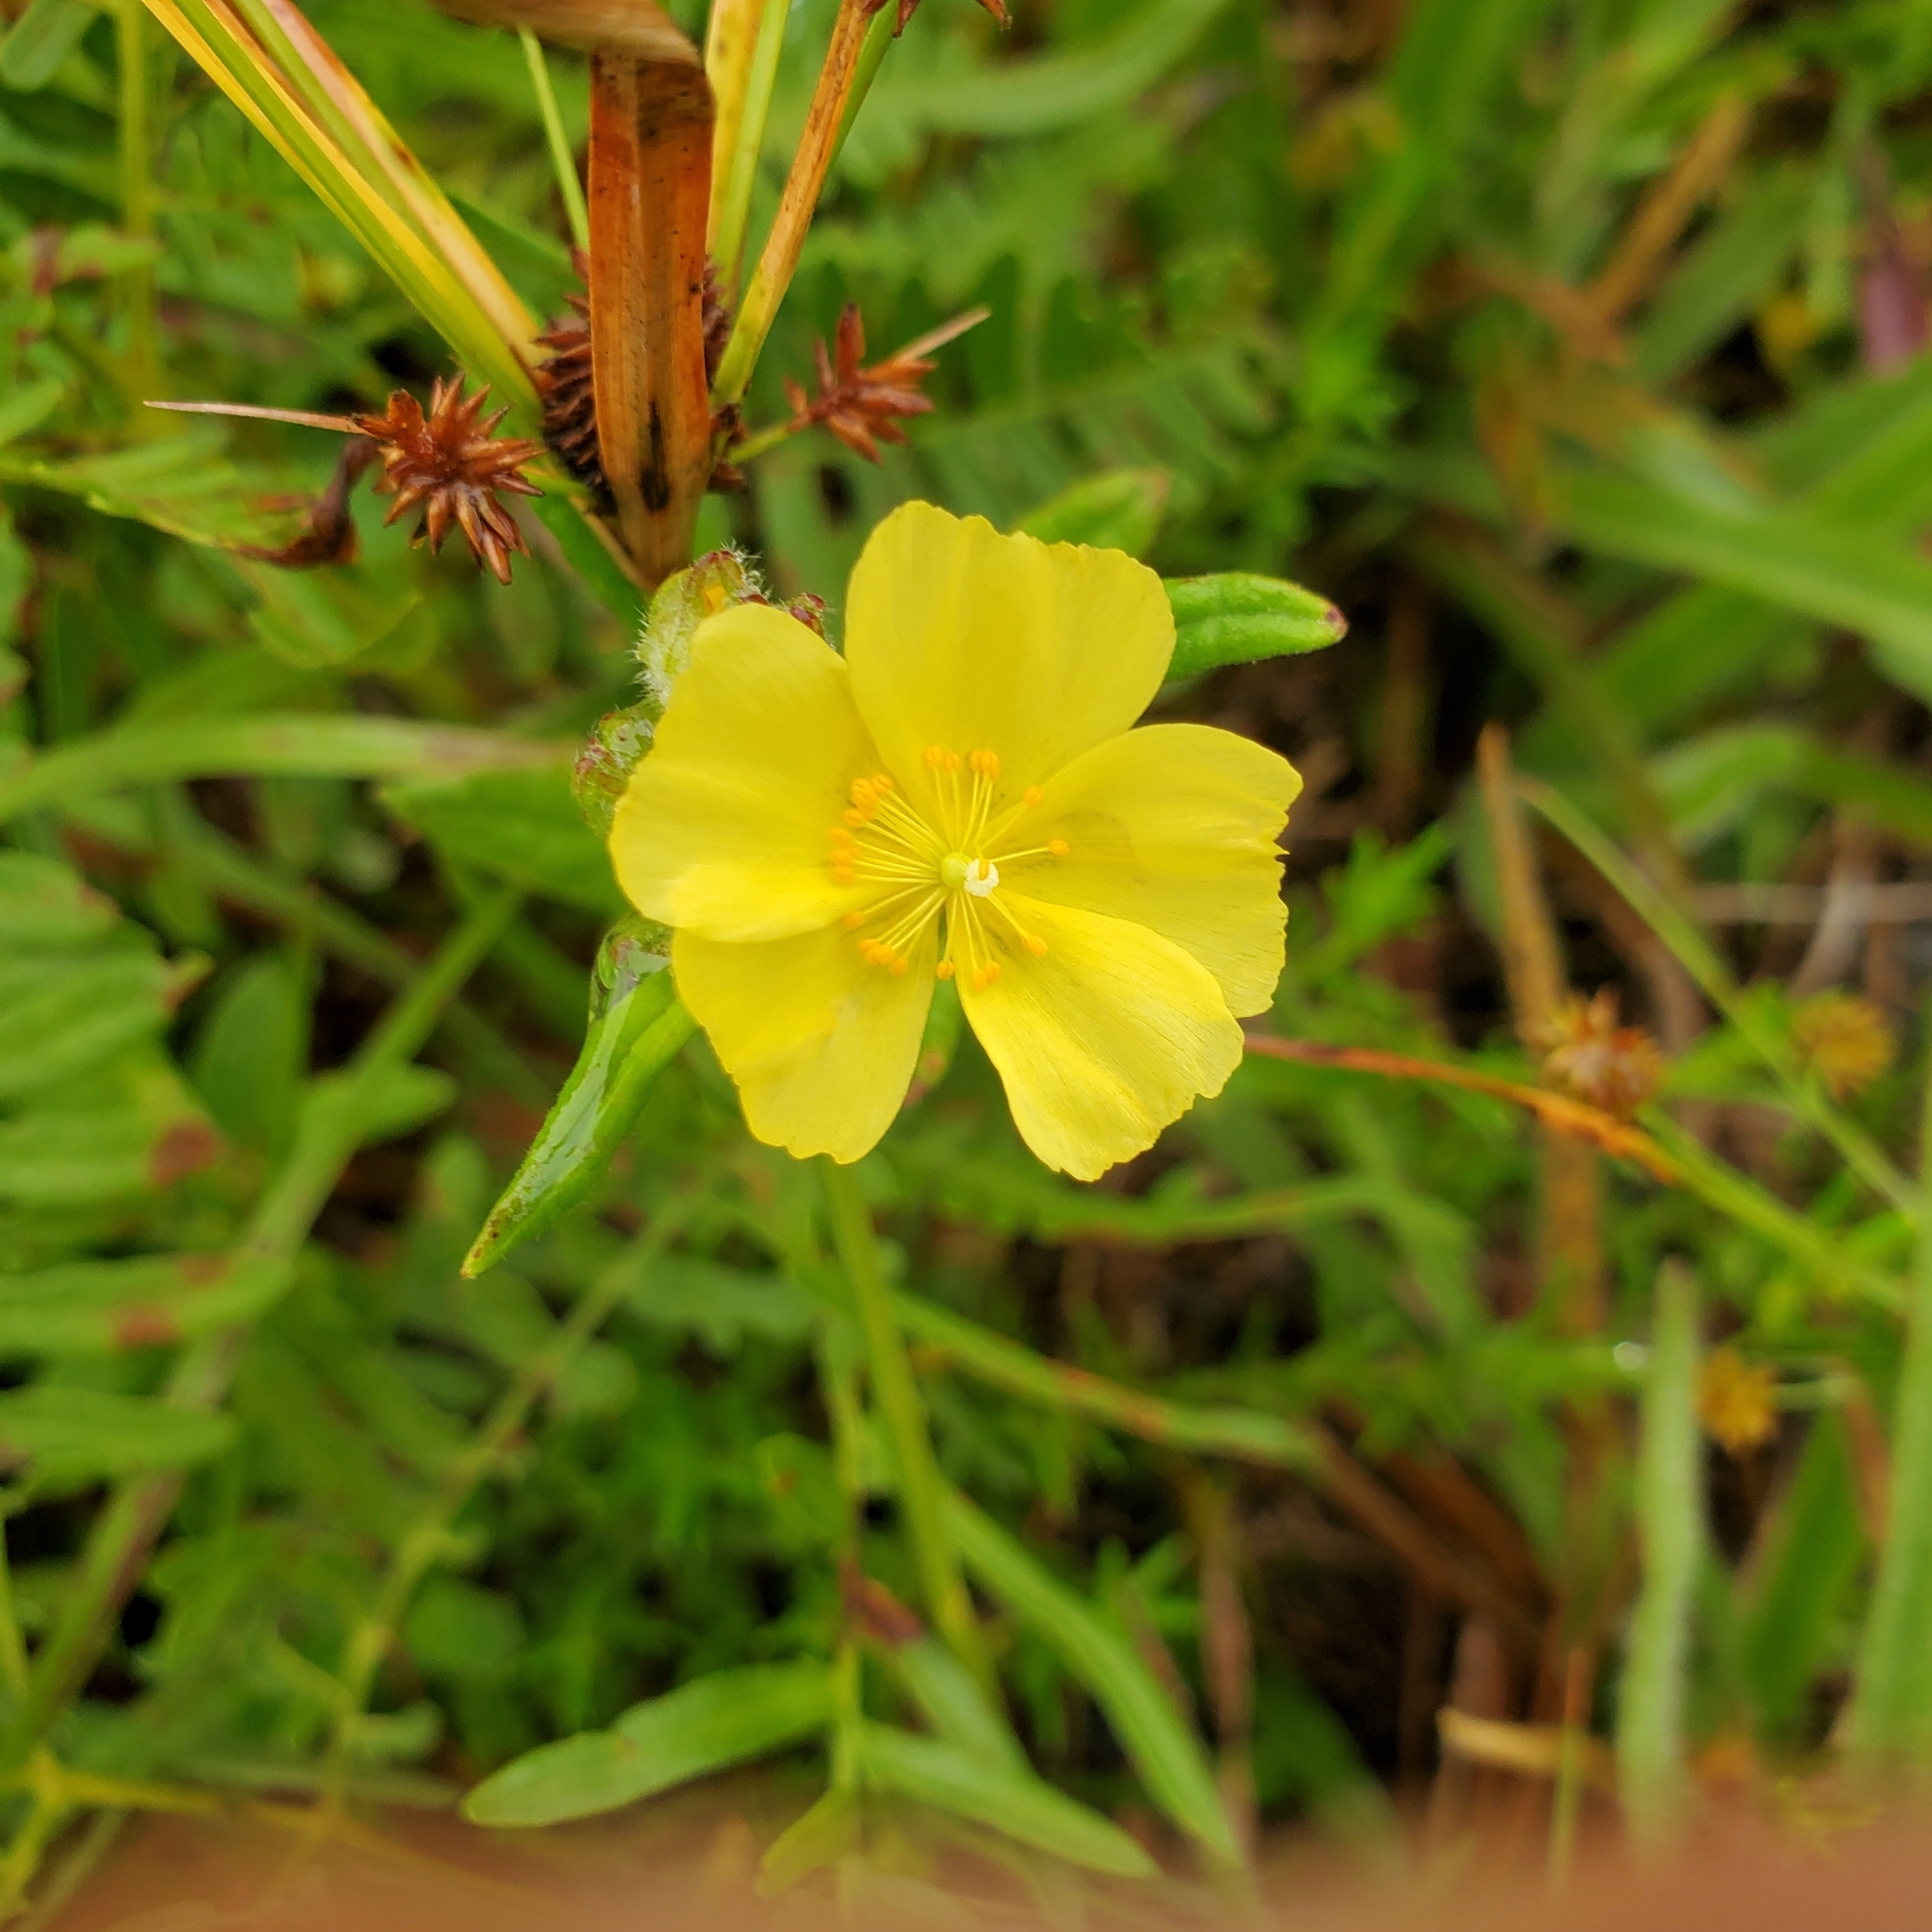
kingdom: Plantae
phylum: Tracheophyta
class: Magnoliopsida
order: Malvales
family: Cistaceae
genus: Crocanthemum
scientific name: Crocanthemum corymbosum
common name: Pinebarren sun-rose
